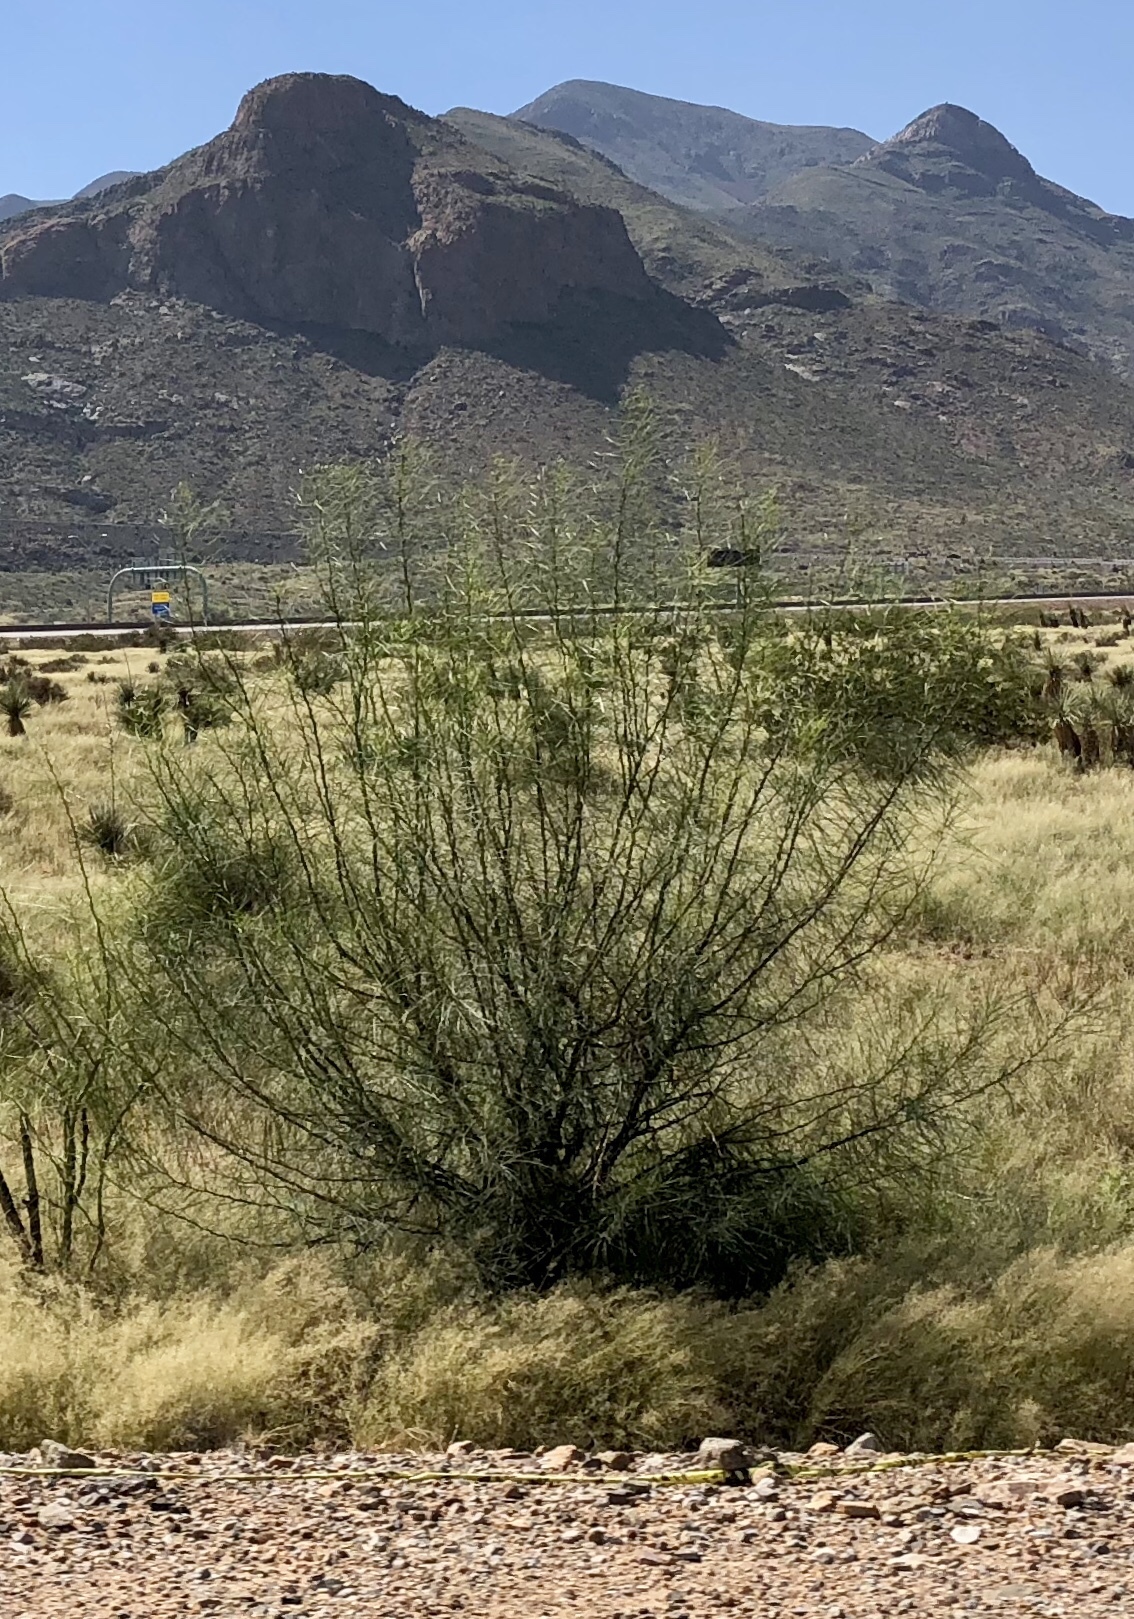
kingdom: Plantae
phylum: Tracheophyta
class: Magnoliopsida
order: Fabales
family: Fabaceae
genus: Parkinsonia
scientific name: Parkinsonia aculeata
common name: Jerusalem thorn
